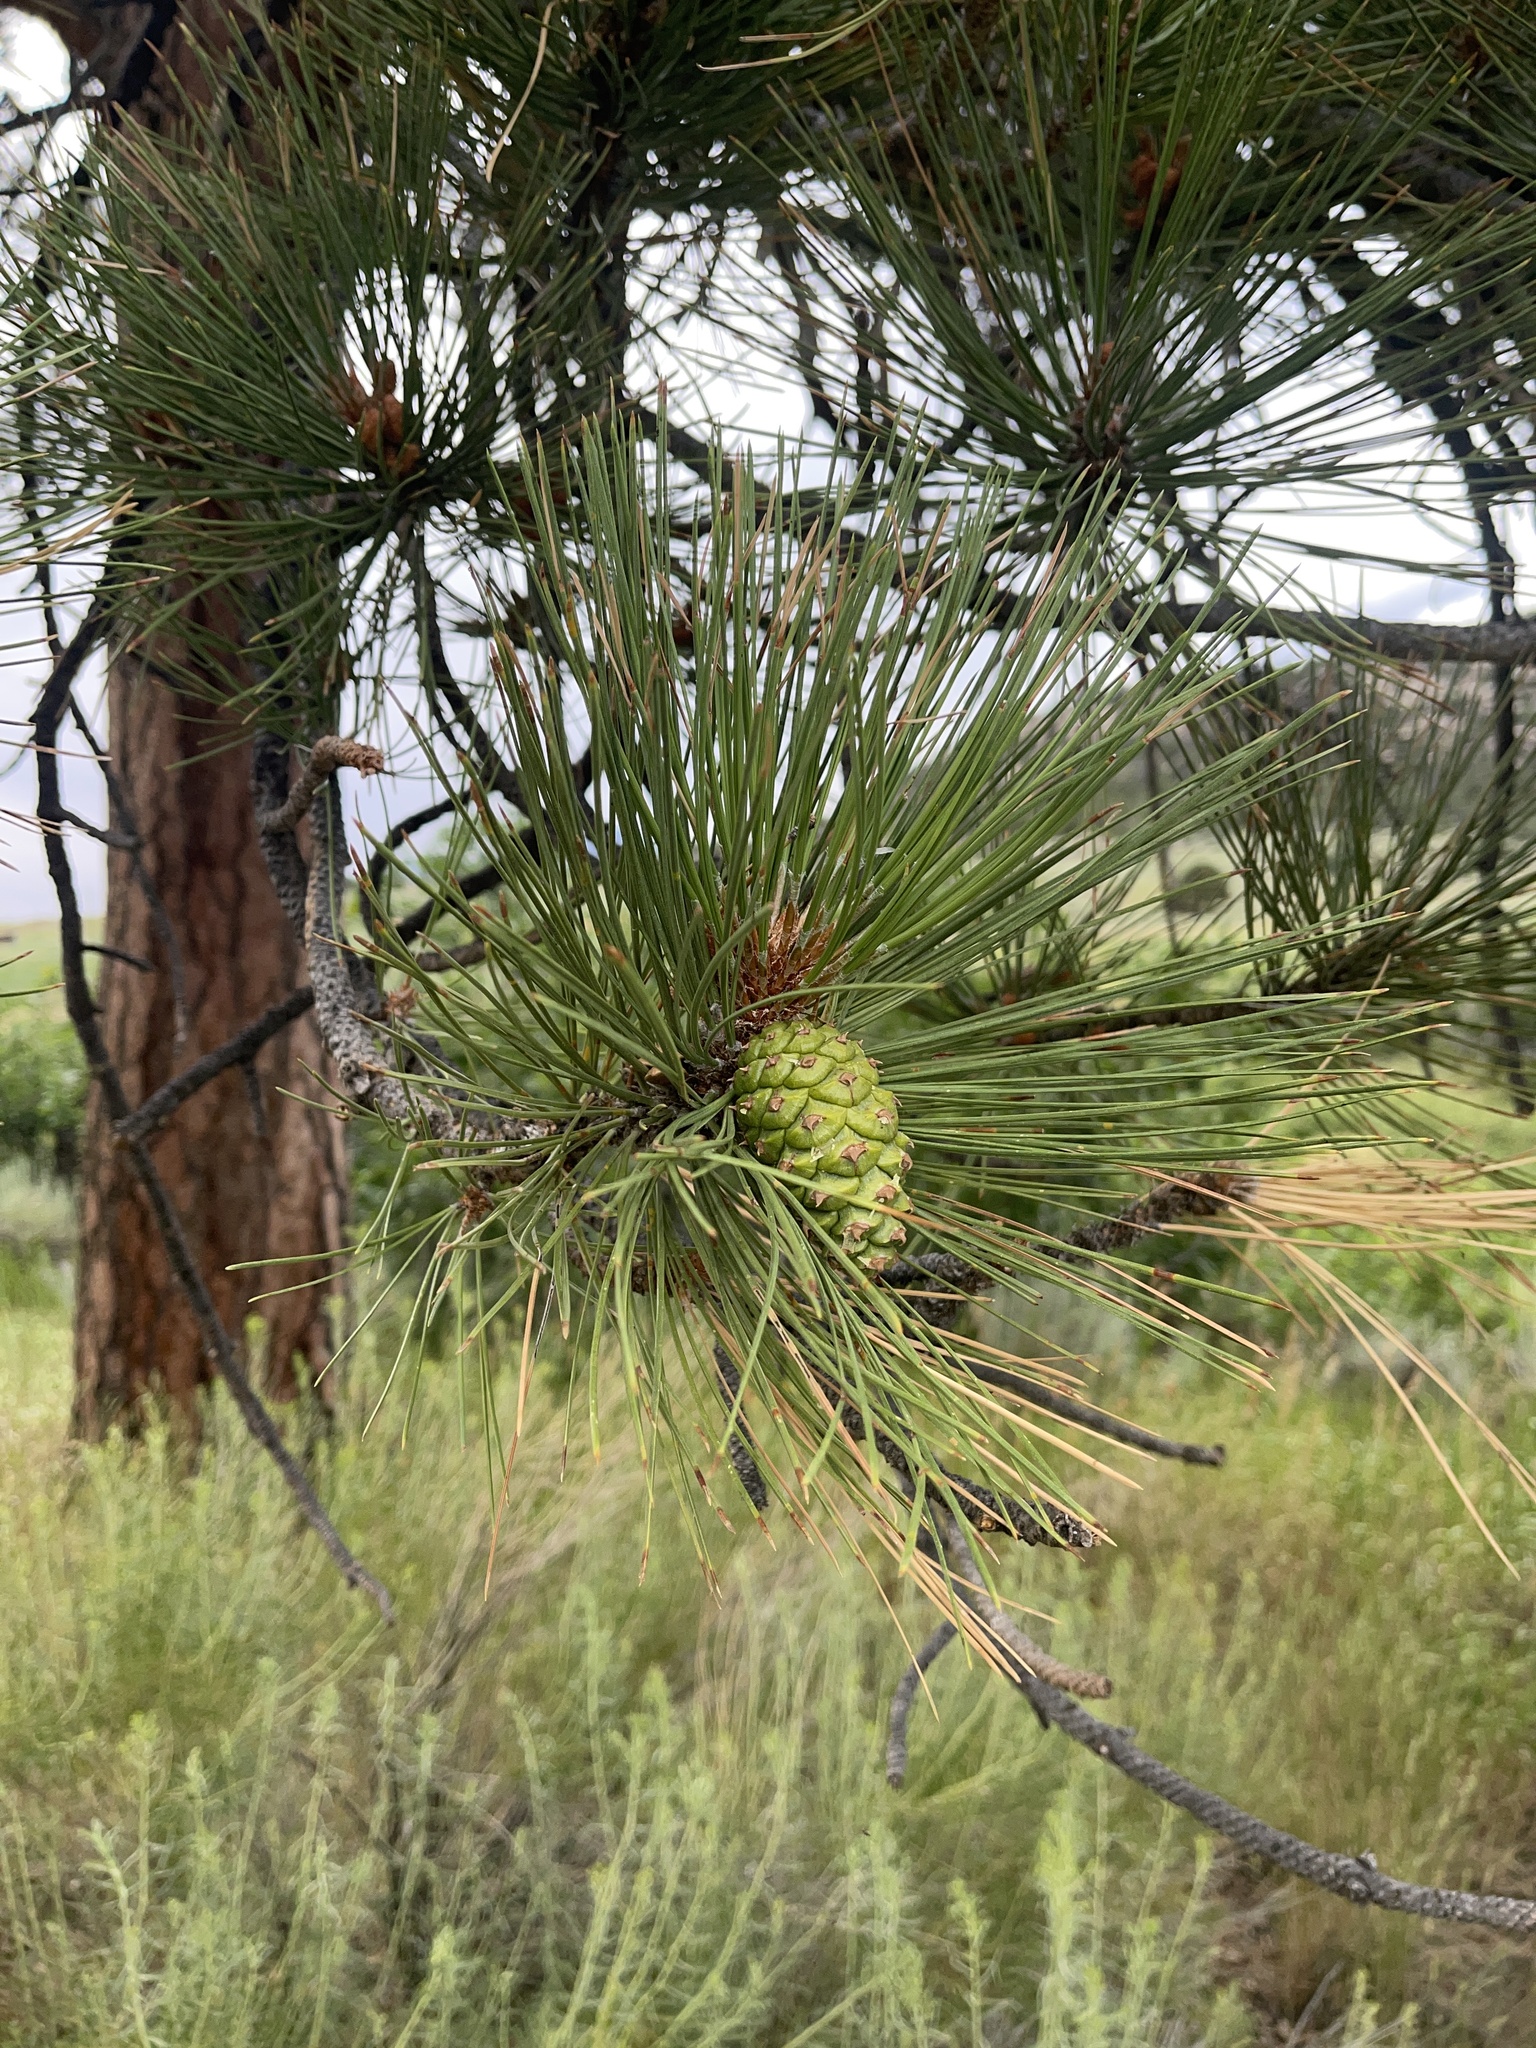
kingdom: Plantae
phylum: Tracheophyta
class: Pinopsida
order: Pinales
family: Pinaceae
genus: Pinus
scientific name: Pinus ponderosa
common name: Western yellow-pine
